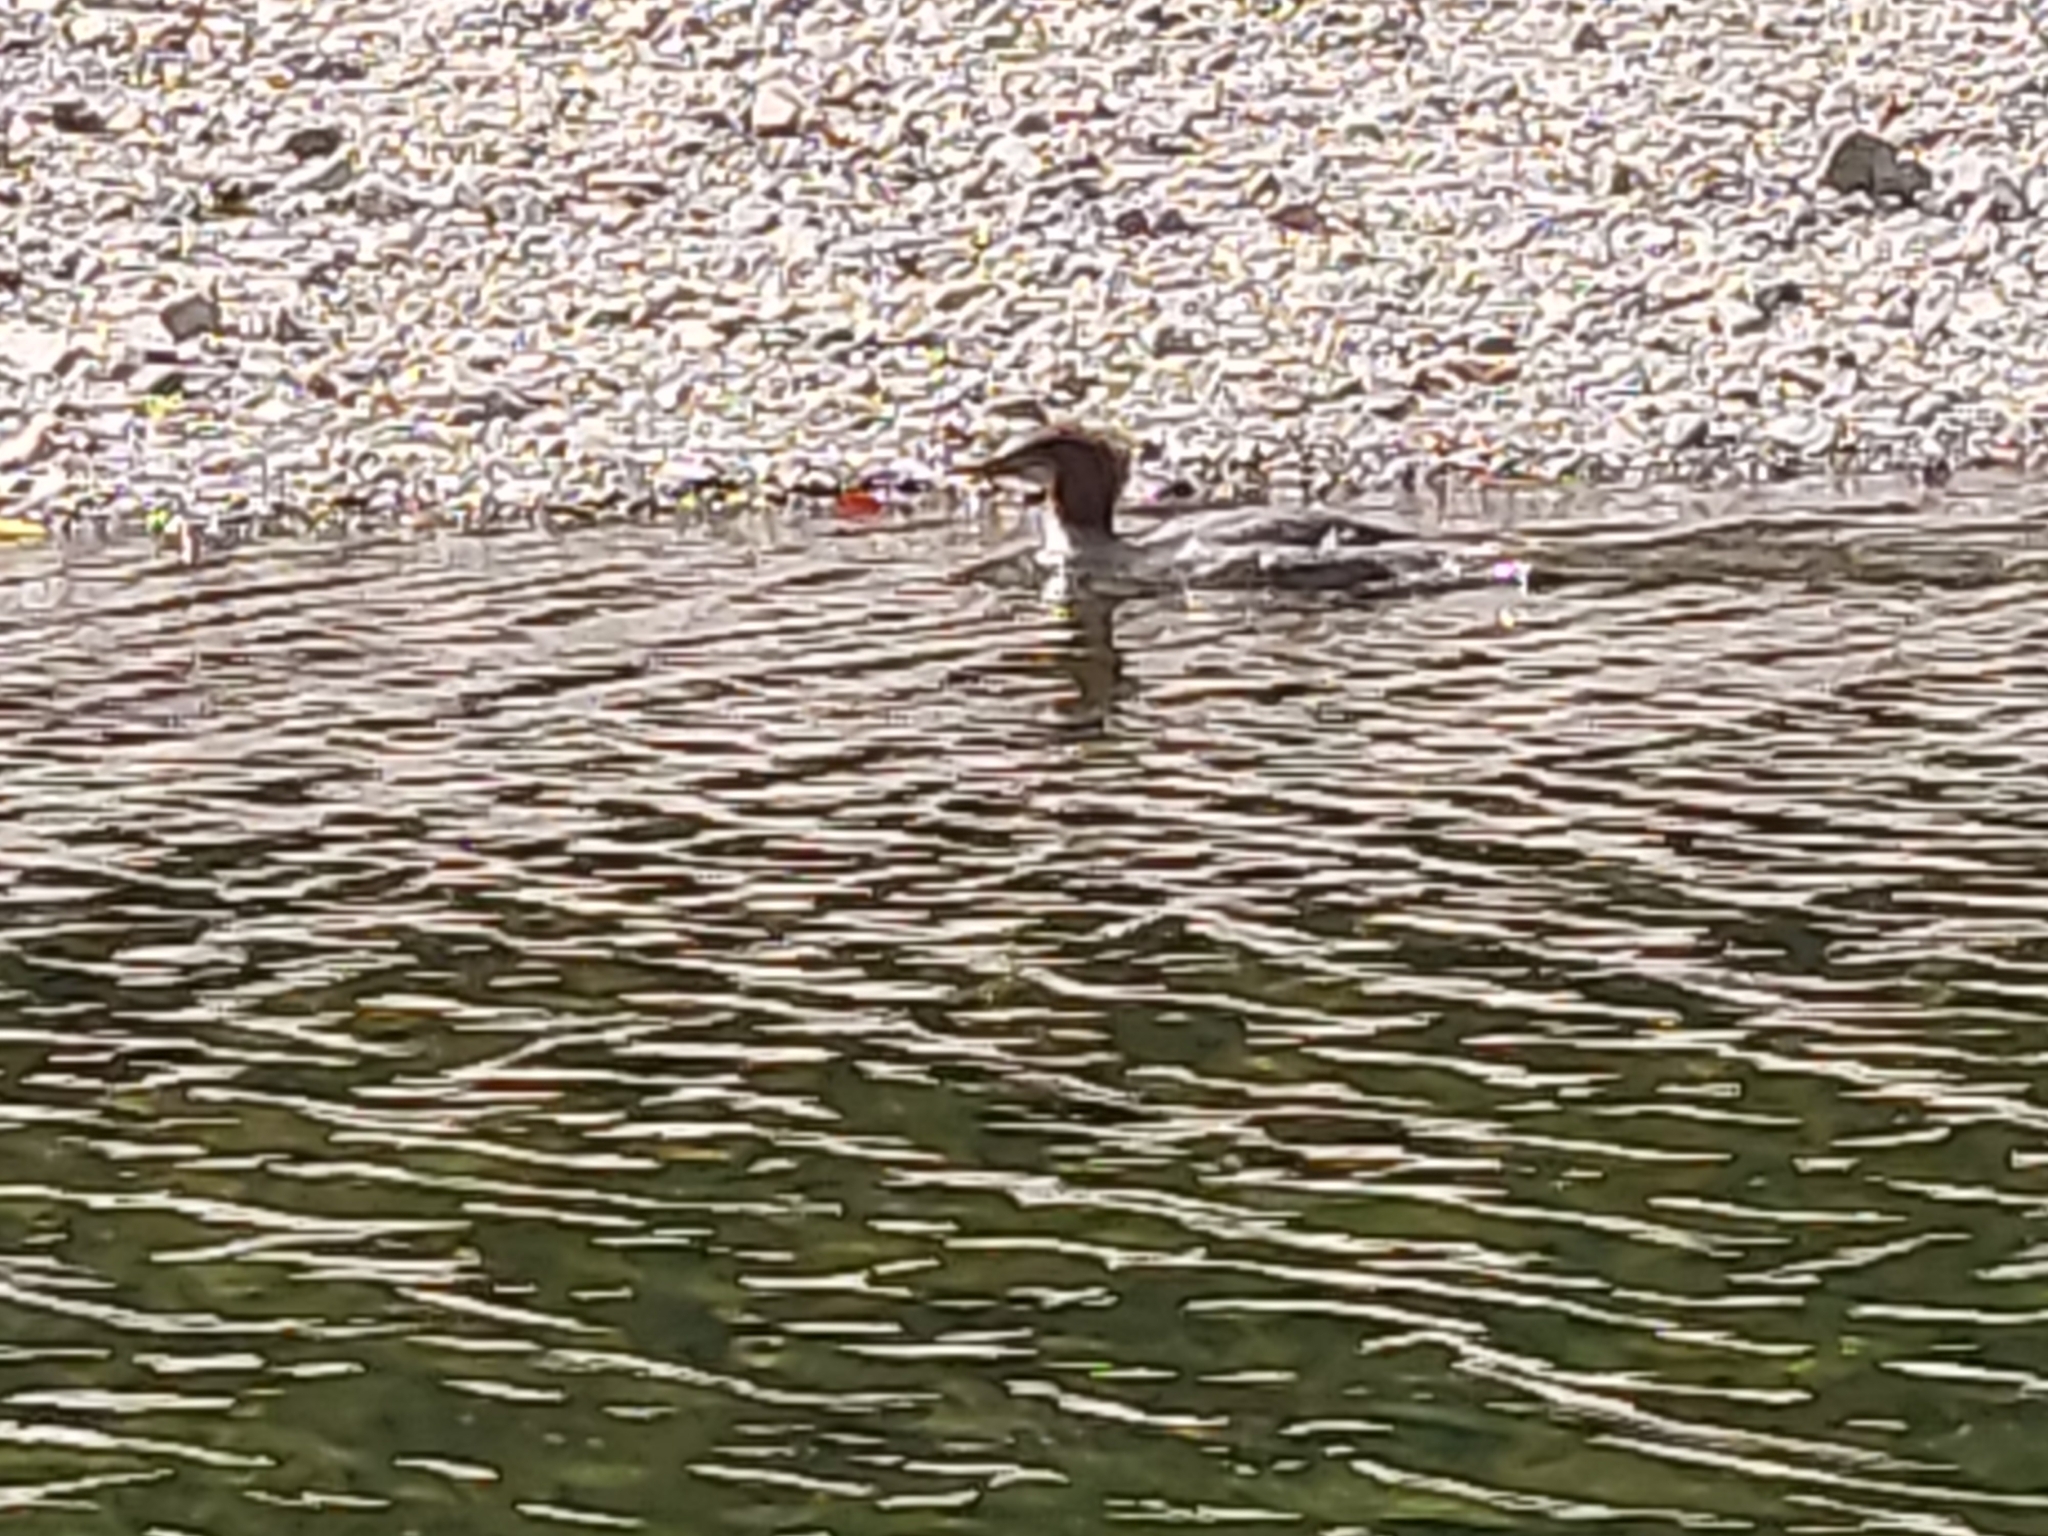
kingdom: Animalia
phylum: Chordata
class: Aves
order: Anseriformes
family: Anatidae
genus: Mergus
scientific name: Mergus merganser
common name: Common merganser
